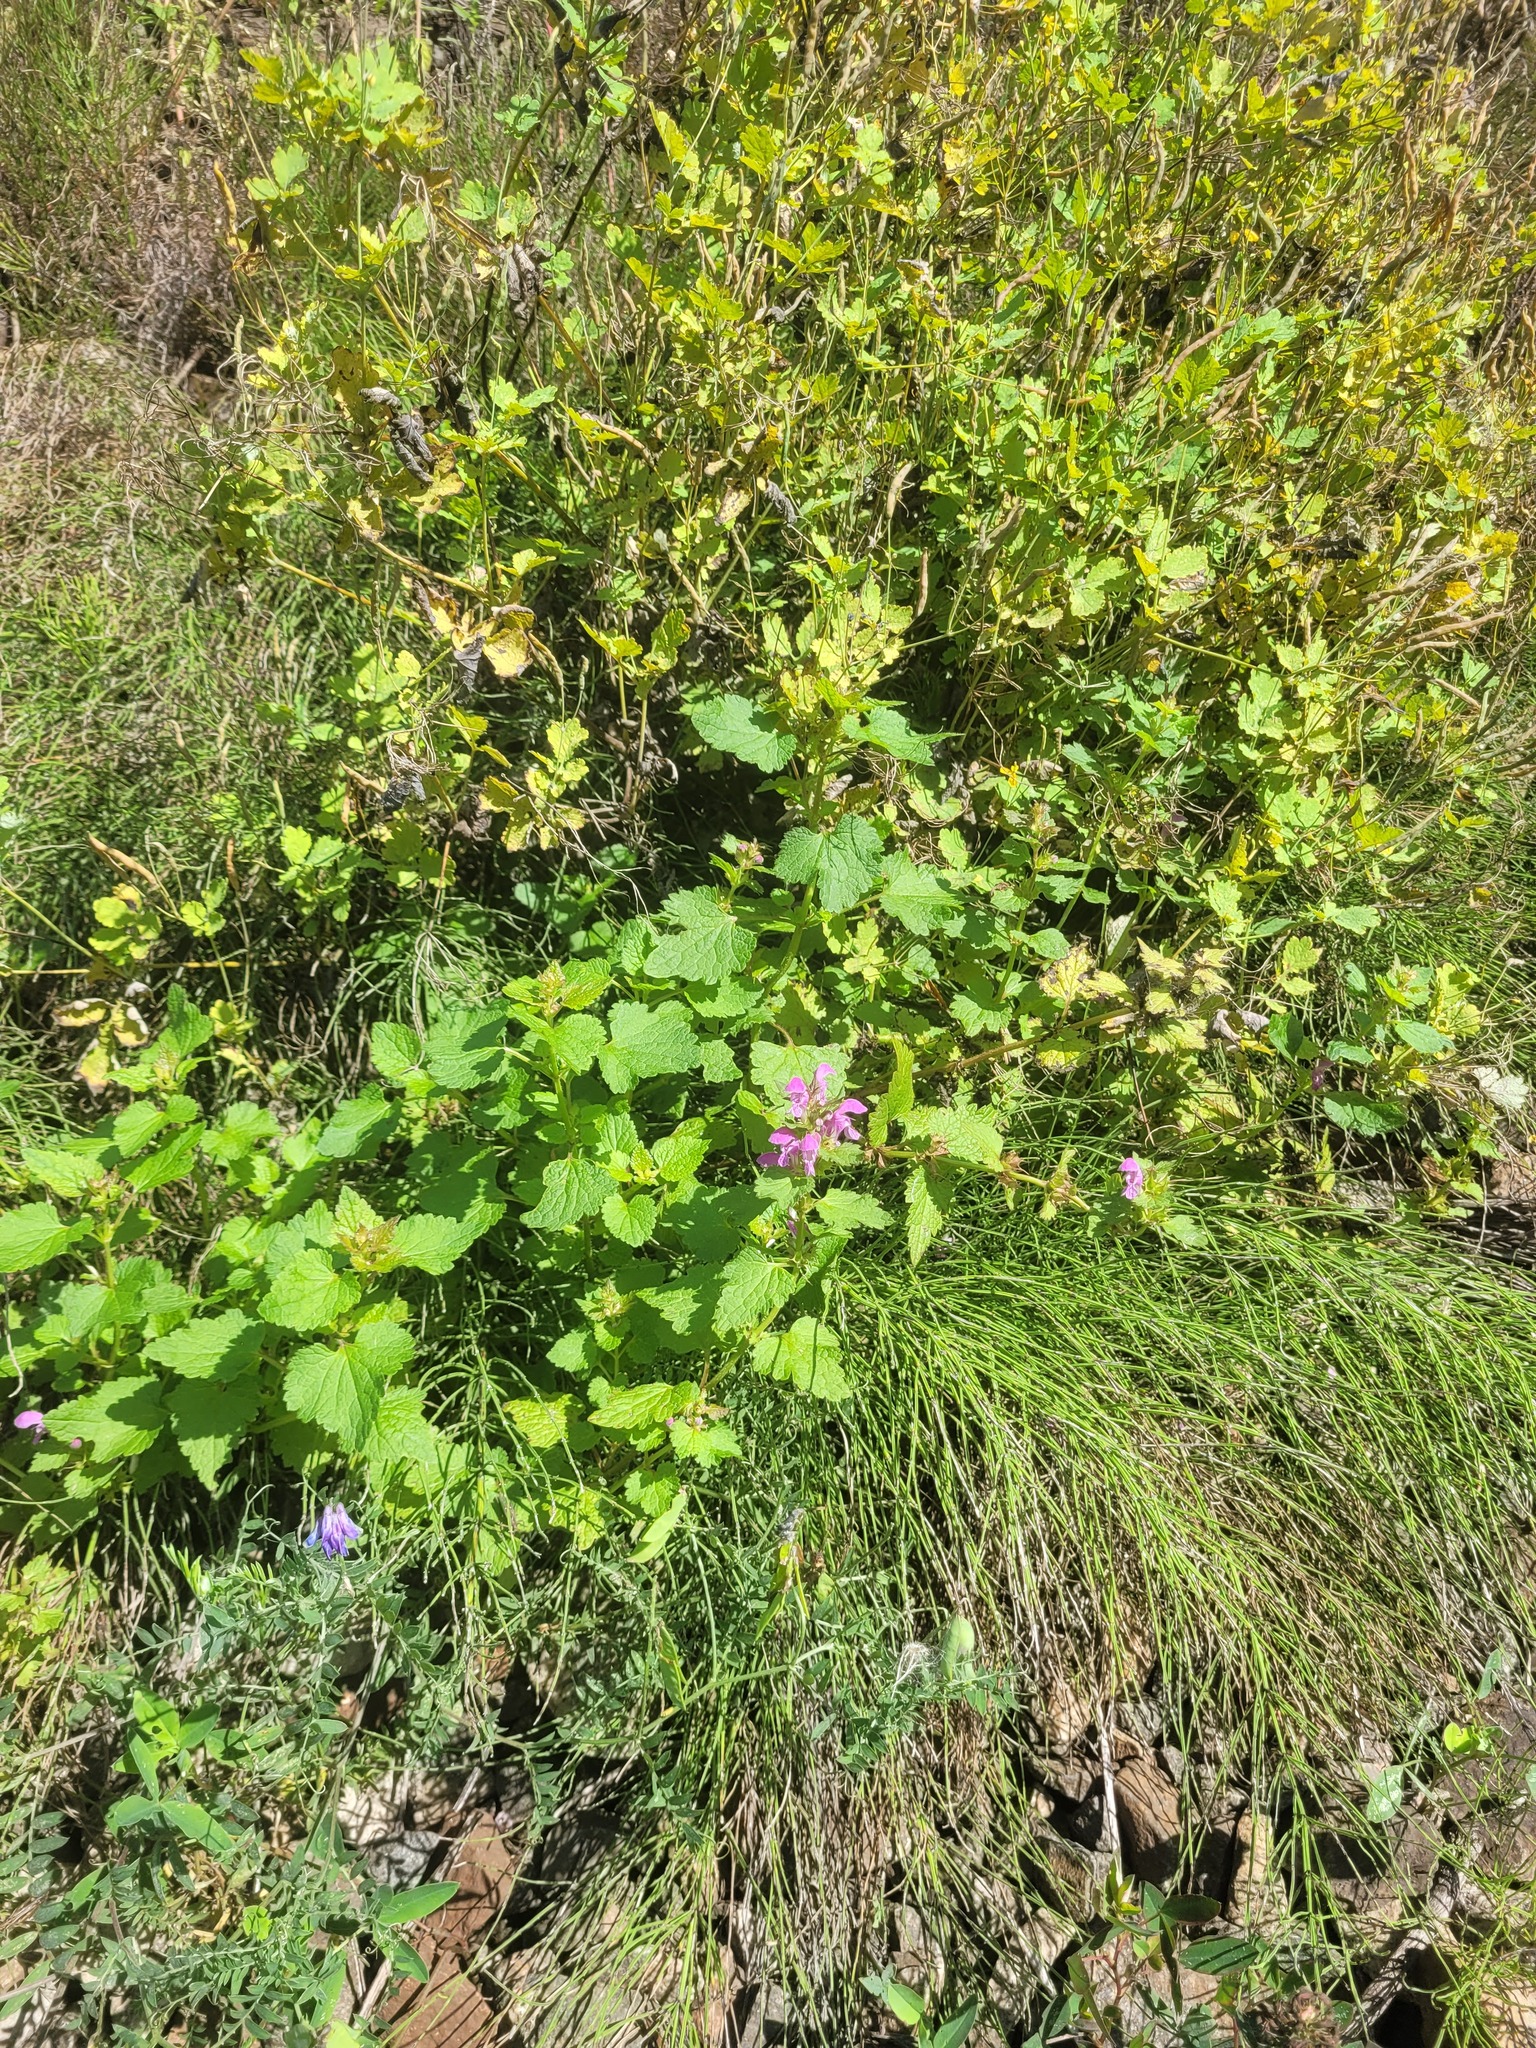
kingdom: Plantae
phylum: Tracheophyta
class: Magnoliopsida
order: Lamiales
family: Lamiaceae
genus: Lamium
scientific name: Lamium maculatum
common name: Spotted dead-nettle
